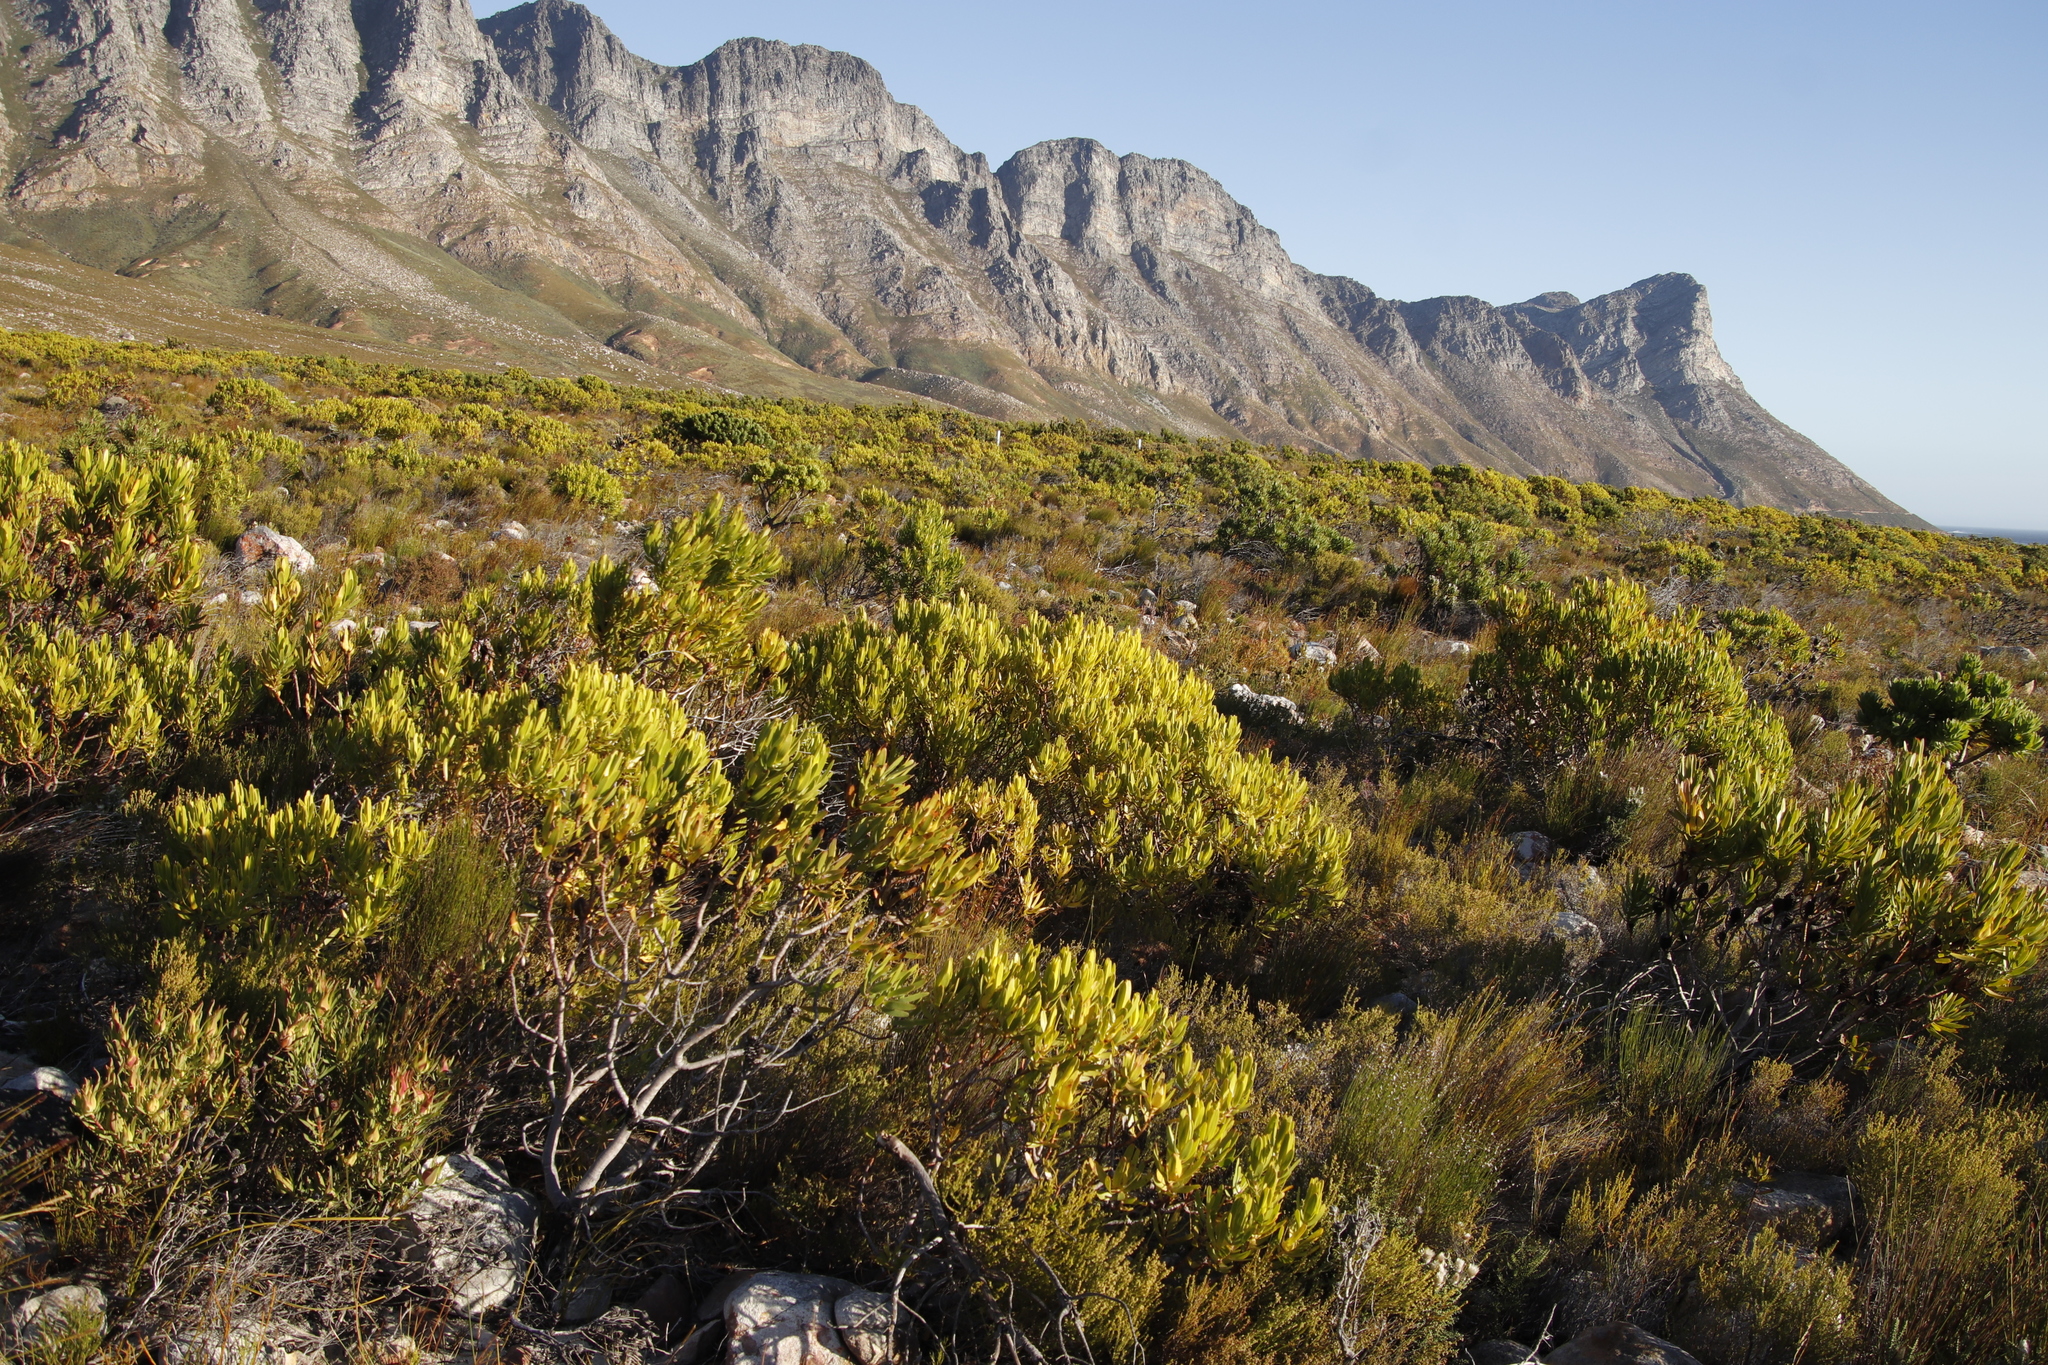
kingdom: Plantae
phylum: Tracheophyta
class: Magnoliopsida
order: Proteales
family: Proteaceae
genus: Leucadendron
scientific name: Leucadendron laureolum
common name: Golden sunshinebush
